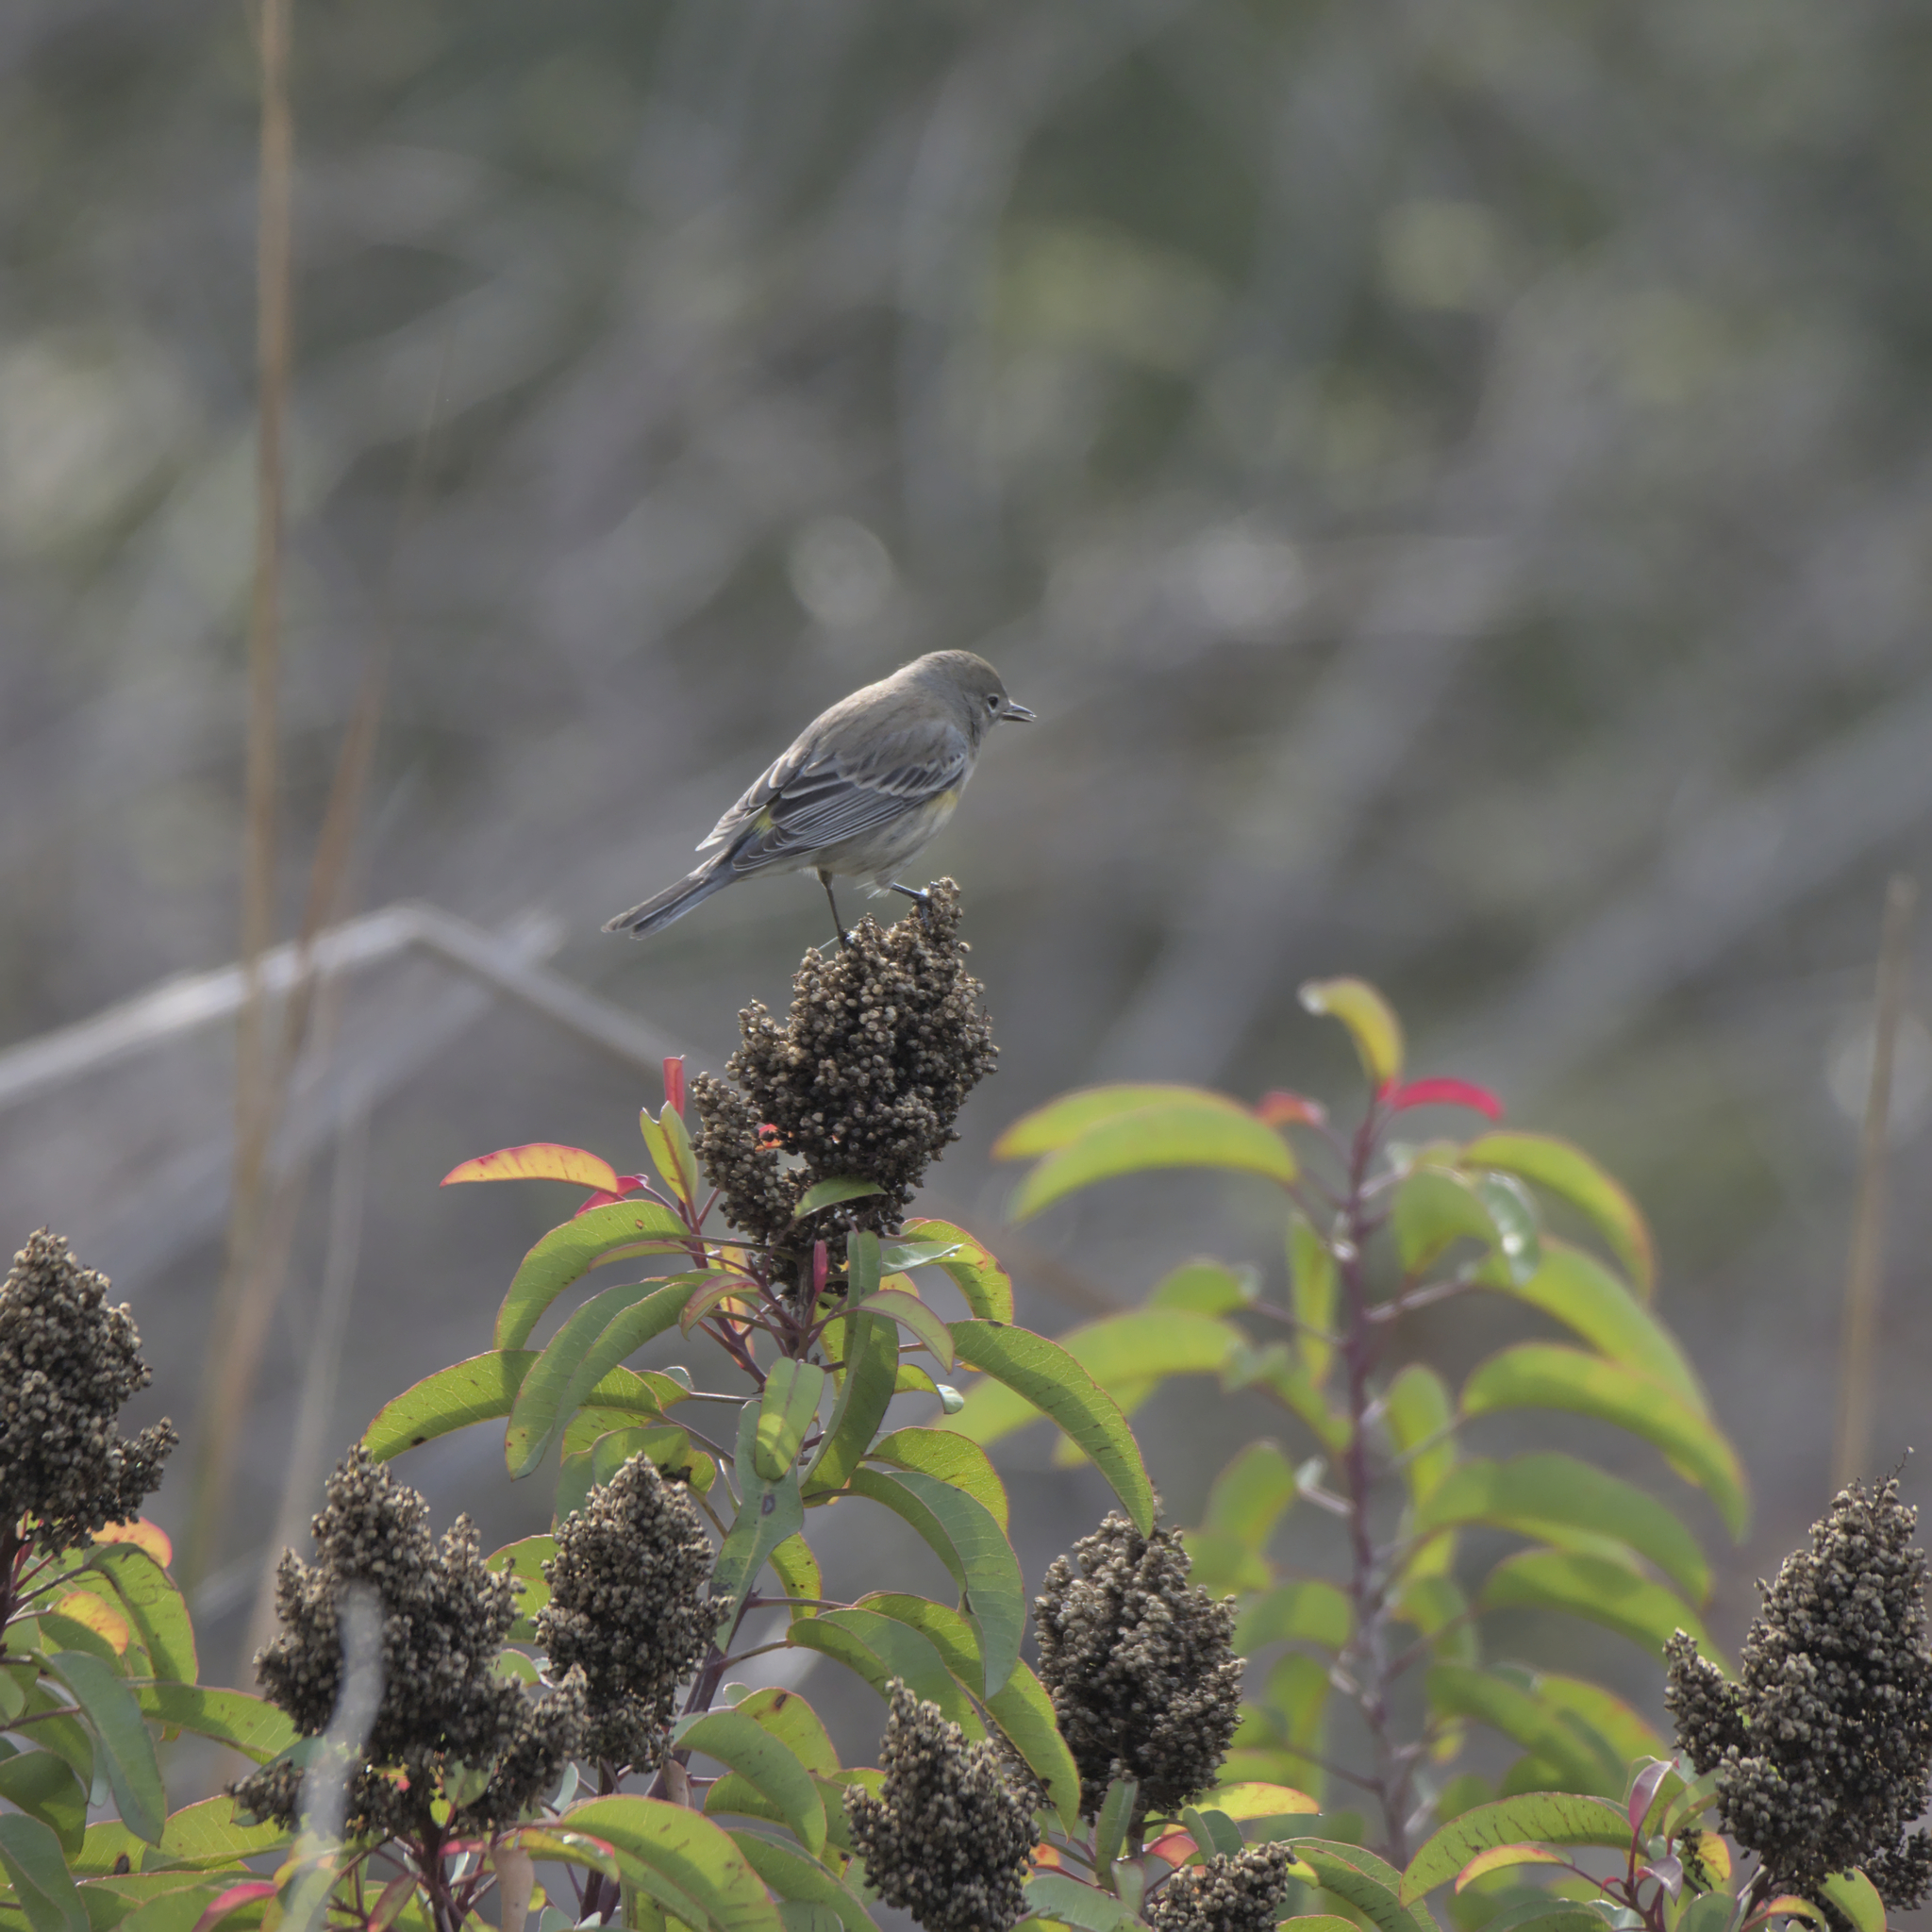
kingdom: Animalia
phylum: Chordata
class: Aves
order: Passeriformes
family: Parulidae
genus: Setophaga
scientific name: Setophaga coronata
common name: Myrtle warbler
